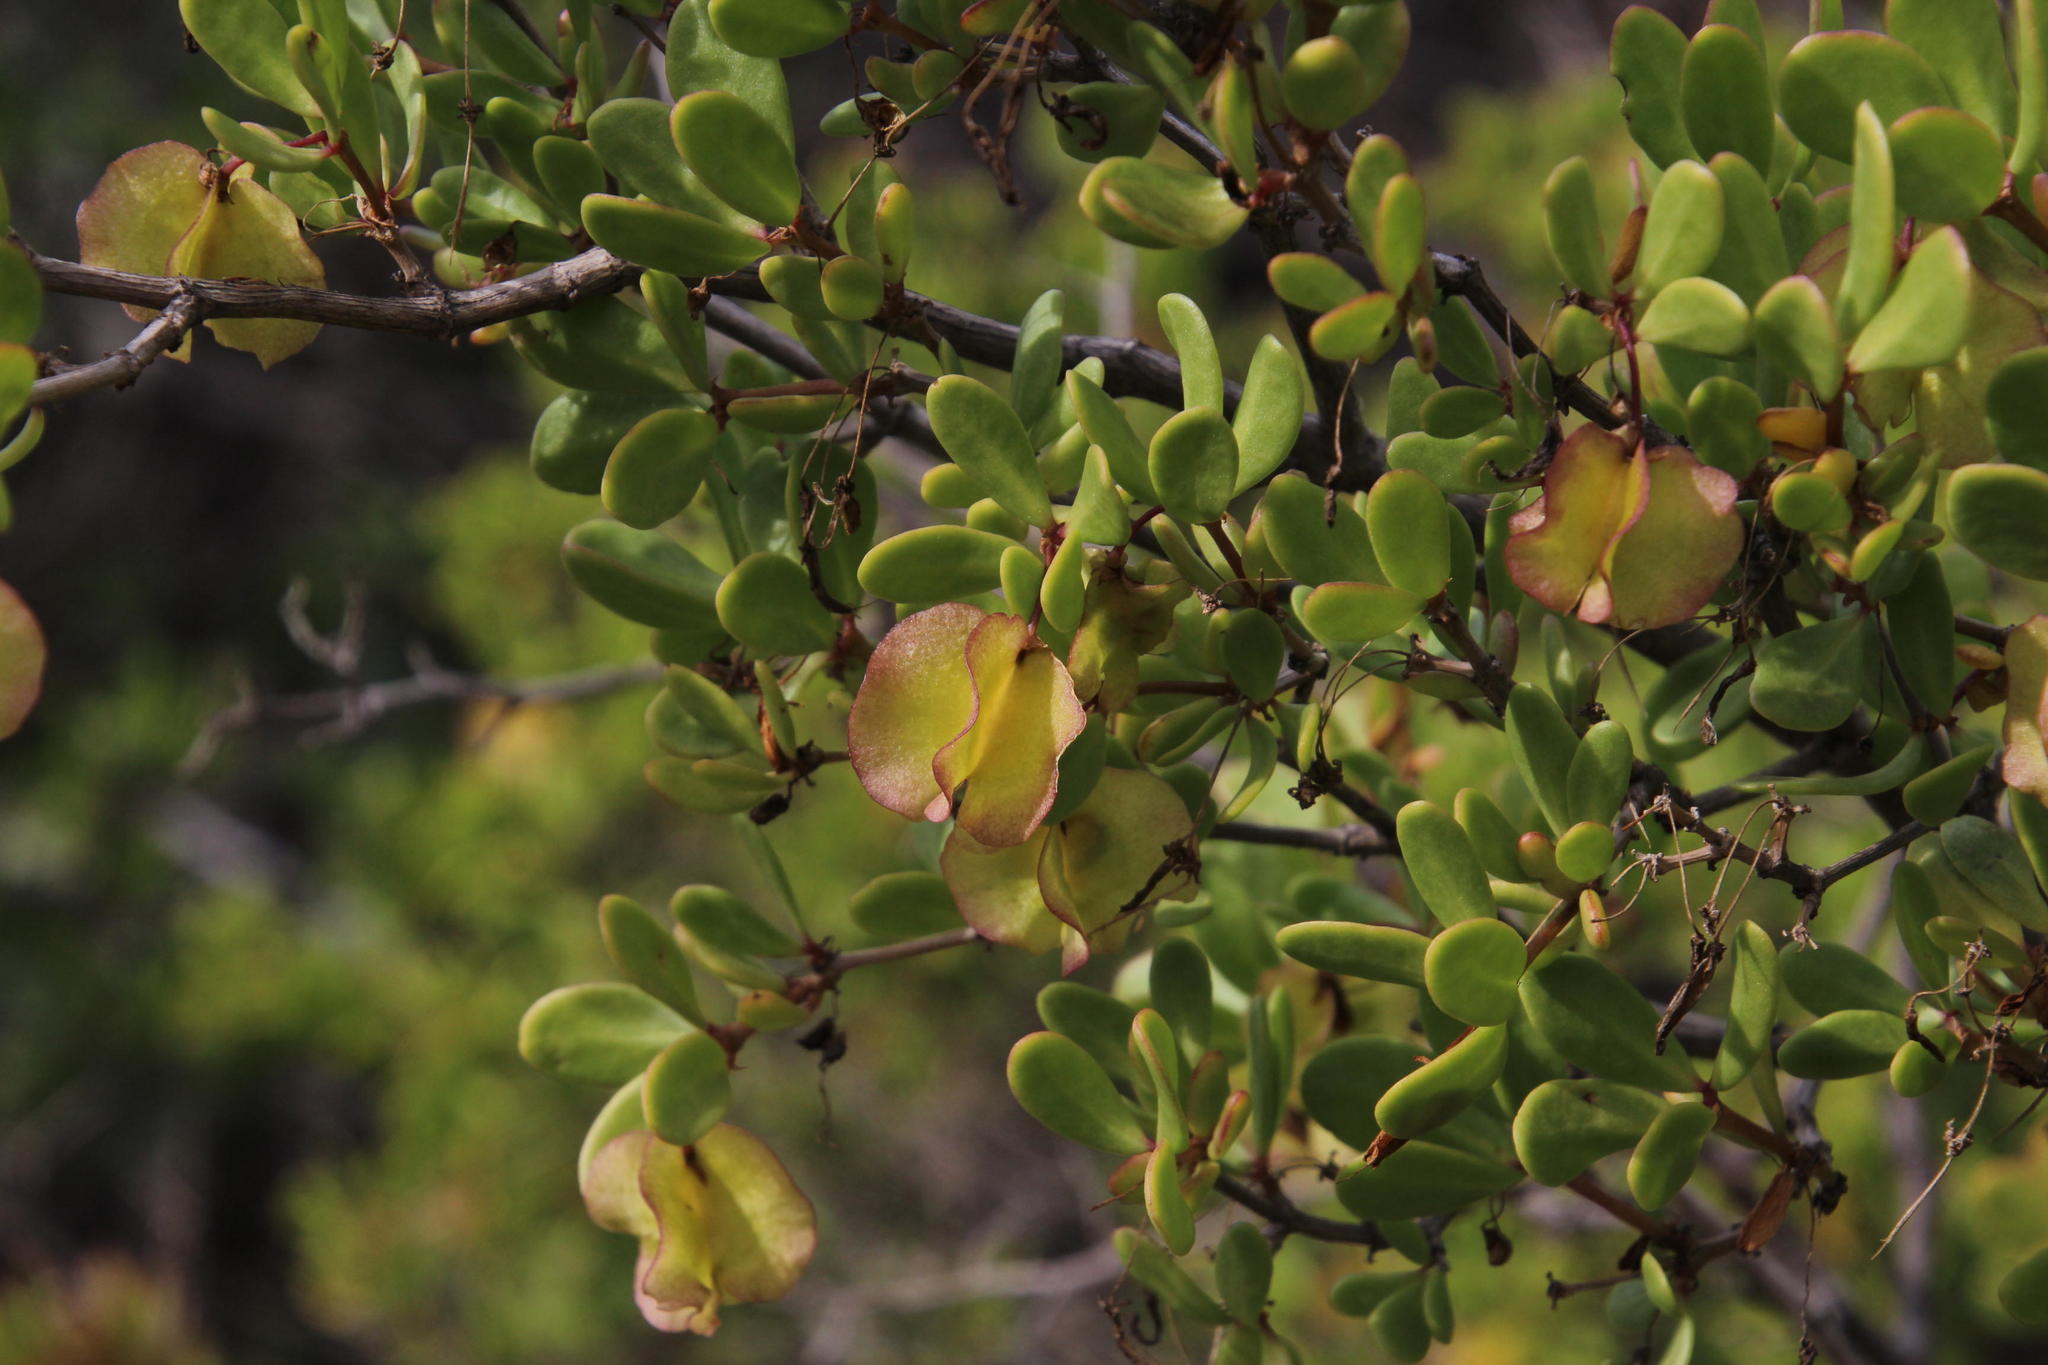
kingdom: Plantae
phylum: Tracheophyta
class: Magnoliopsida
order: Zygophyllales
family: Zygophyllaceae
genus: Roepera
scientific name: Roepera morgsana
